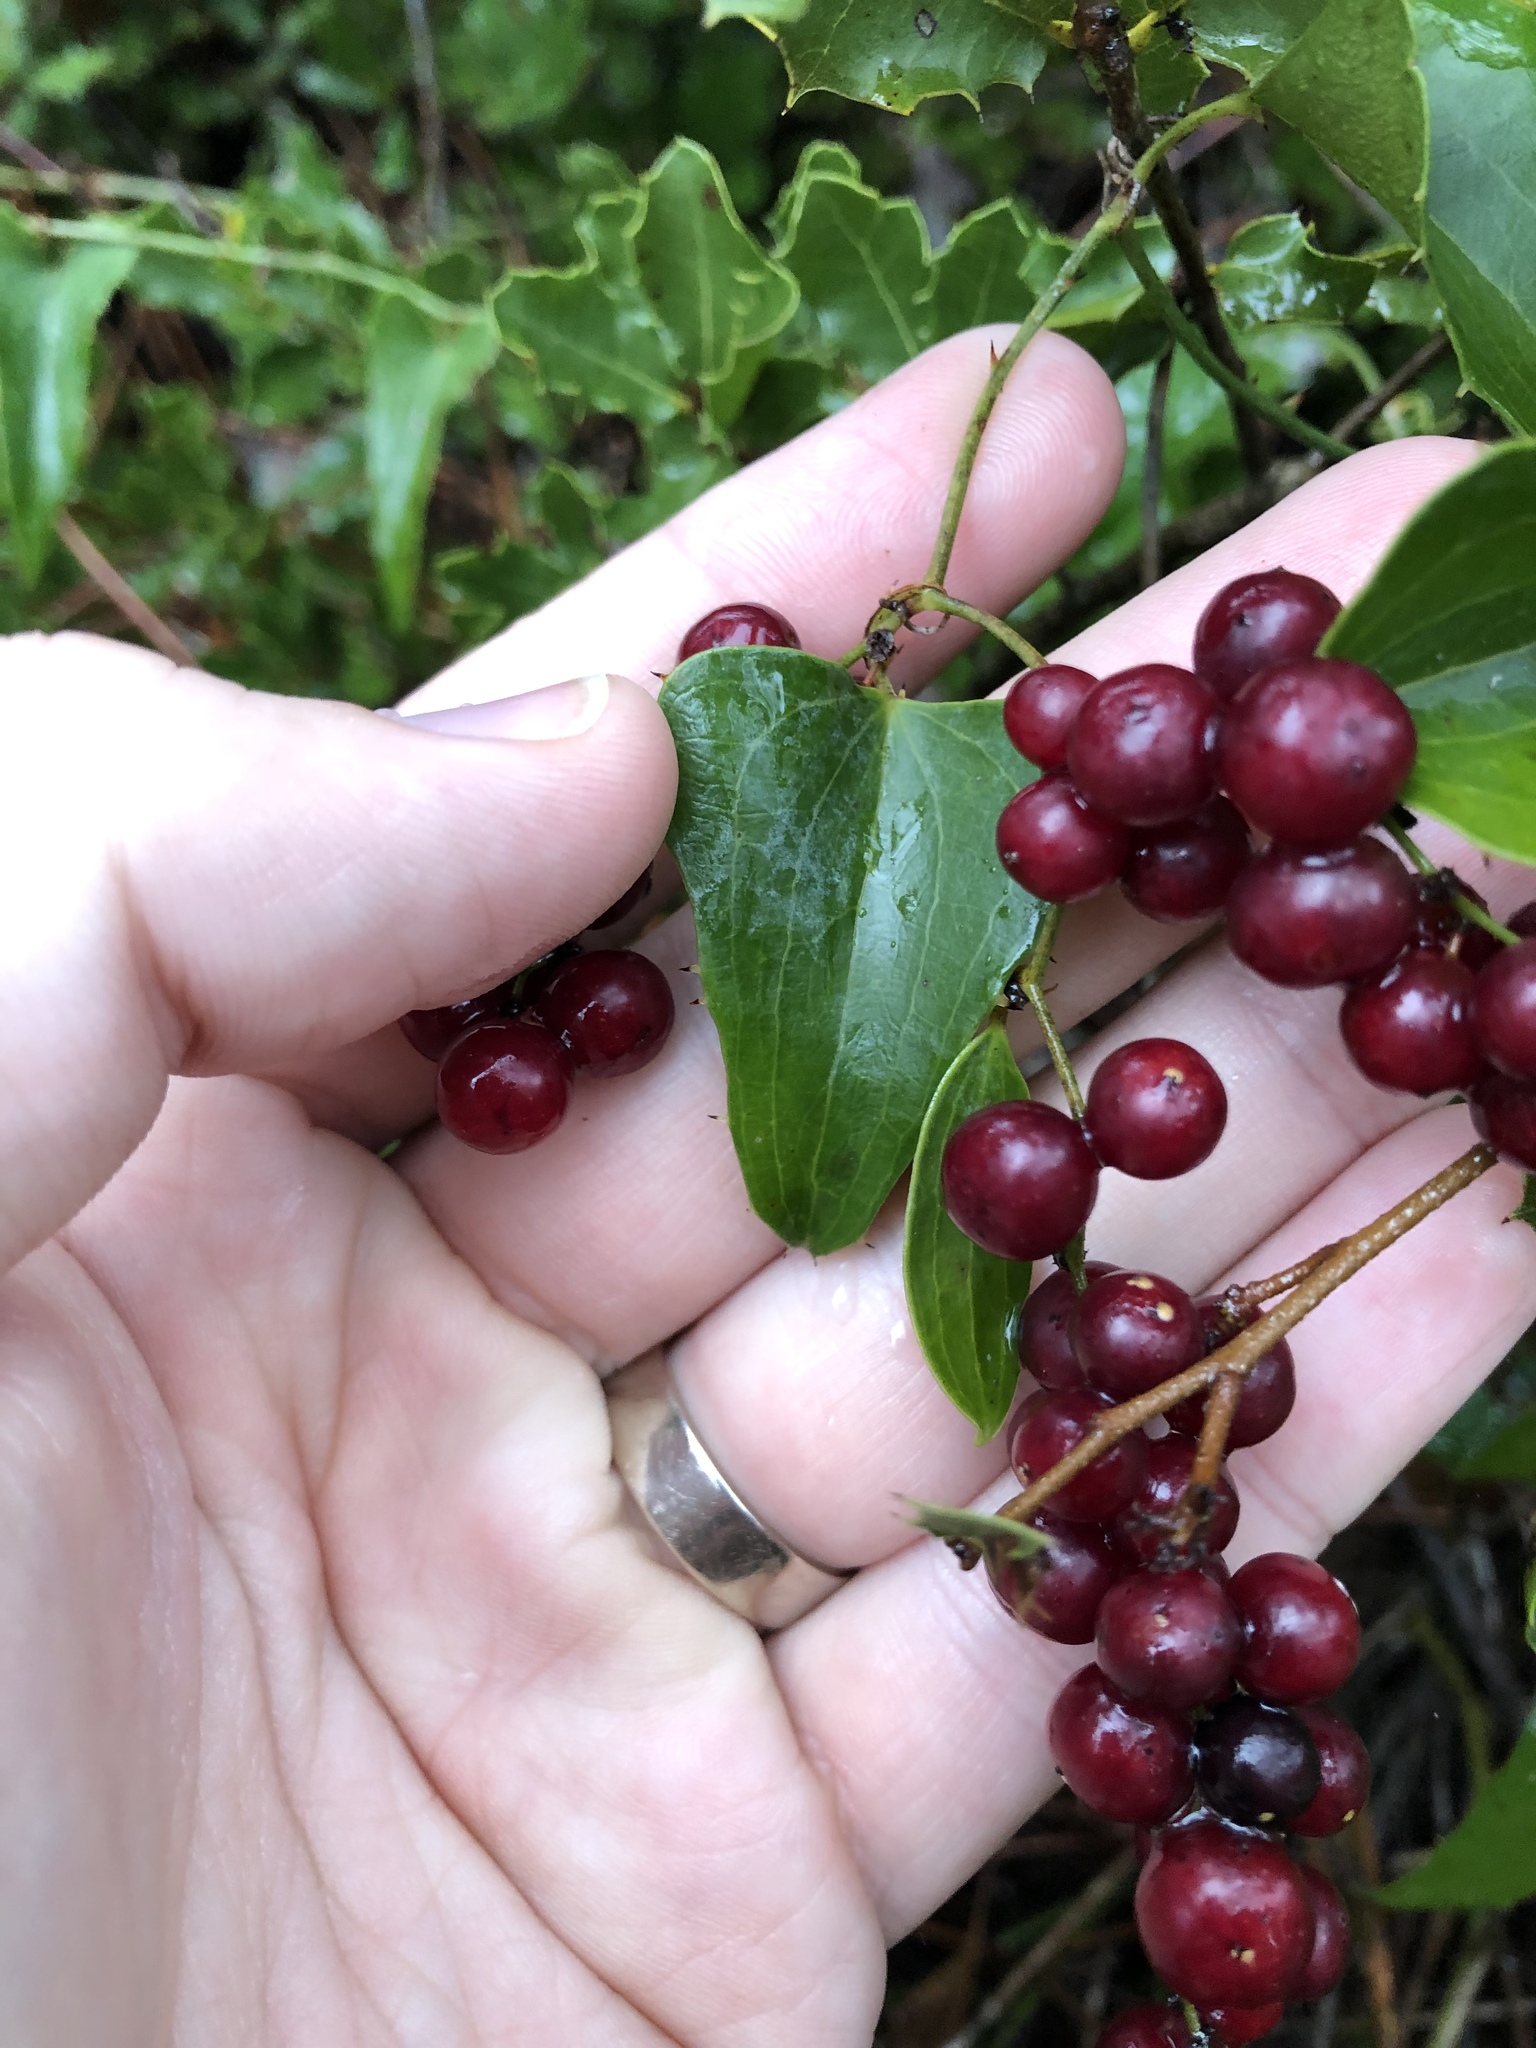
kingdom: Plantae
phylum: Tracheophyta
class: Liliopsida
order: Liliales
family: Smilacaceae
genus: Smilax
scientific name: Smilax aspera
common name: Common smilax
